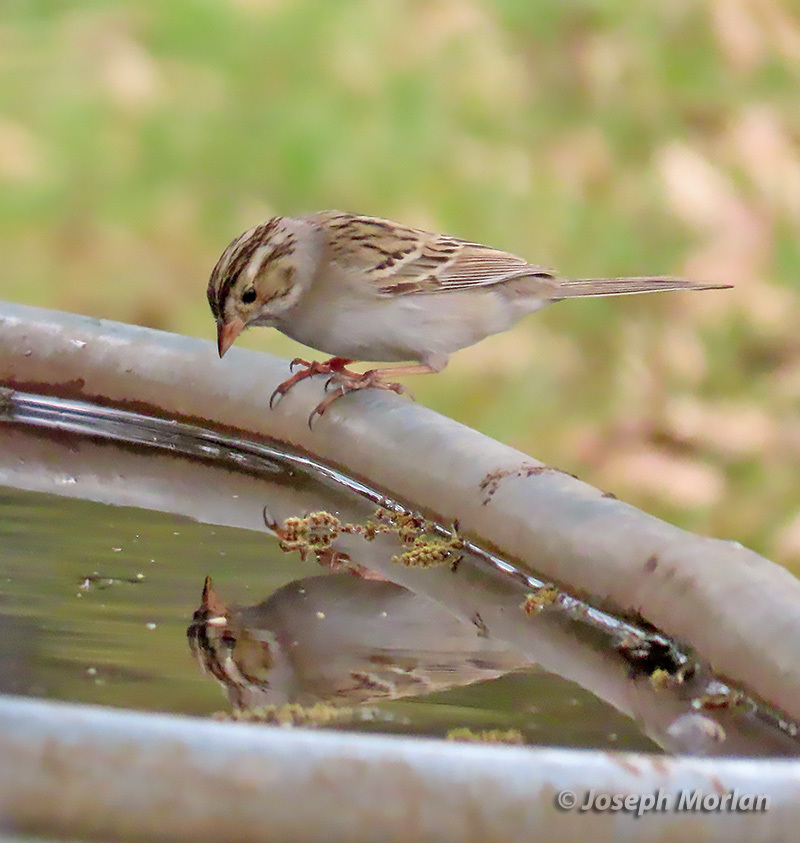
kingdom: Animalia
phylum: Chordata
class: Aves
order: Passeriformes
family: Passerellidae
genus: Spizella
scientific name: Spizella pallida
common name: Clay-colored sparrow
